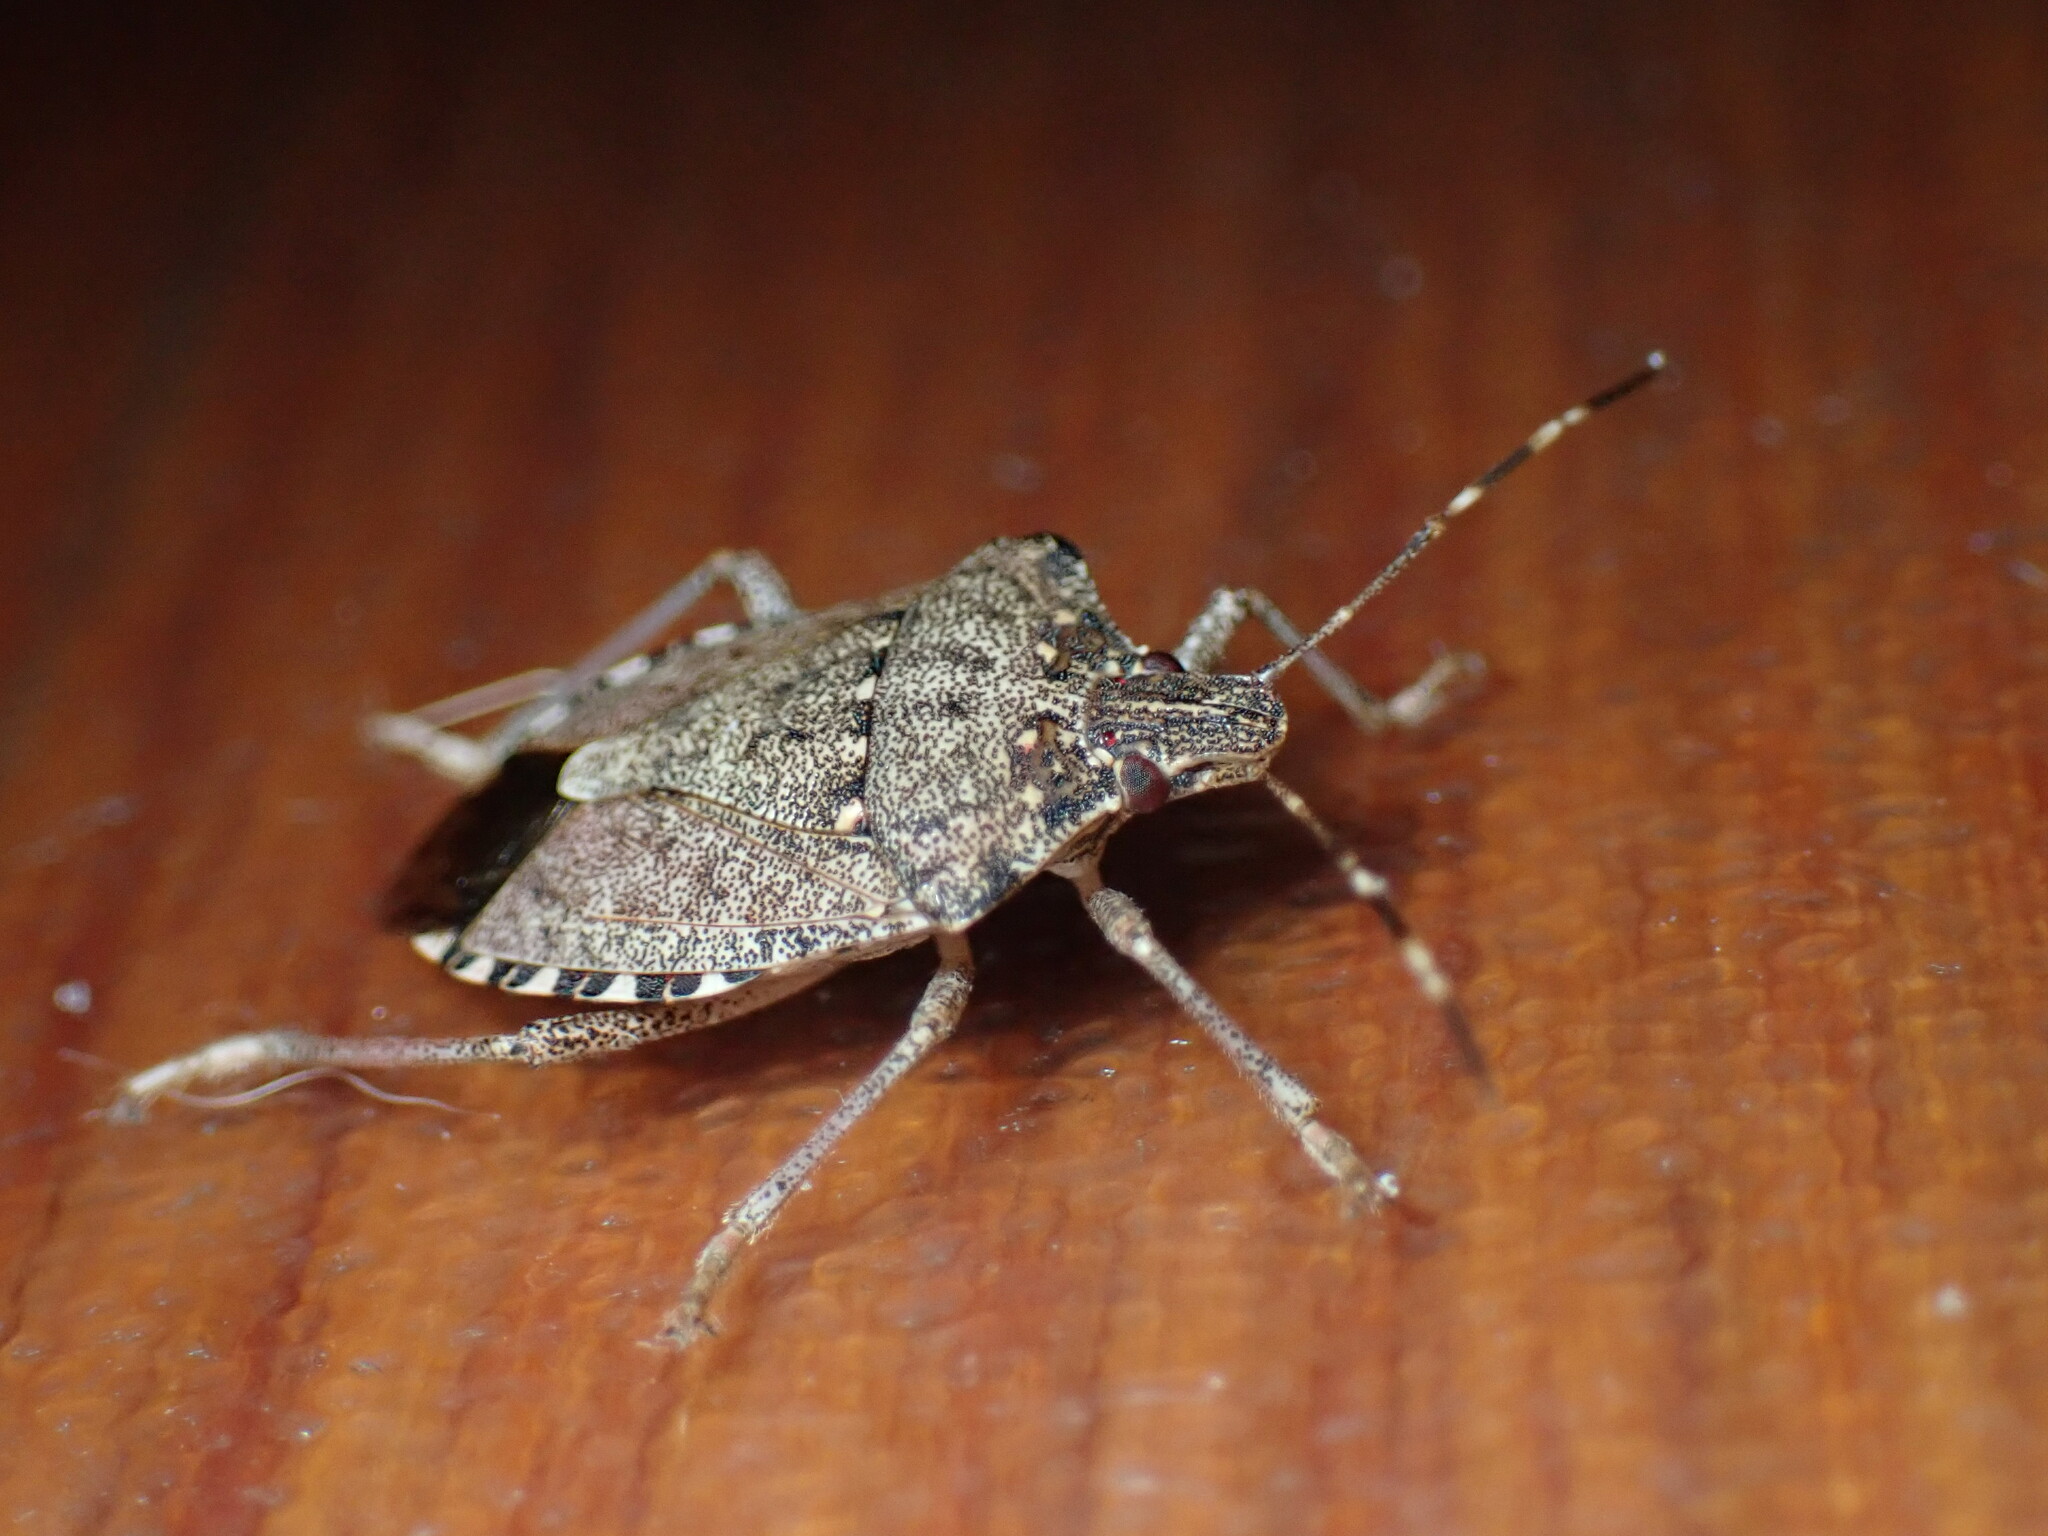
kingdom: Animalia
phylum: Arthropoda
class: Insecta
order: Hemiptera
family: Pentatomidae
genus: Halyomorpha
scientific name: Halyomorpha halys
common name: Brown marmorated stink bug
